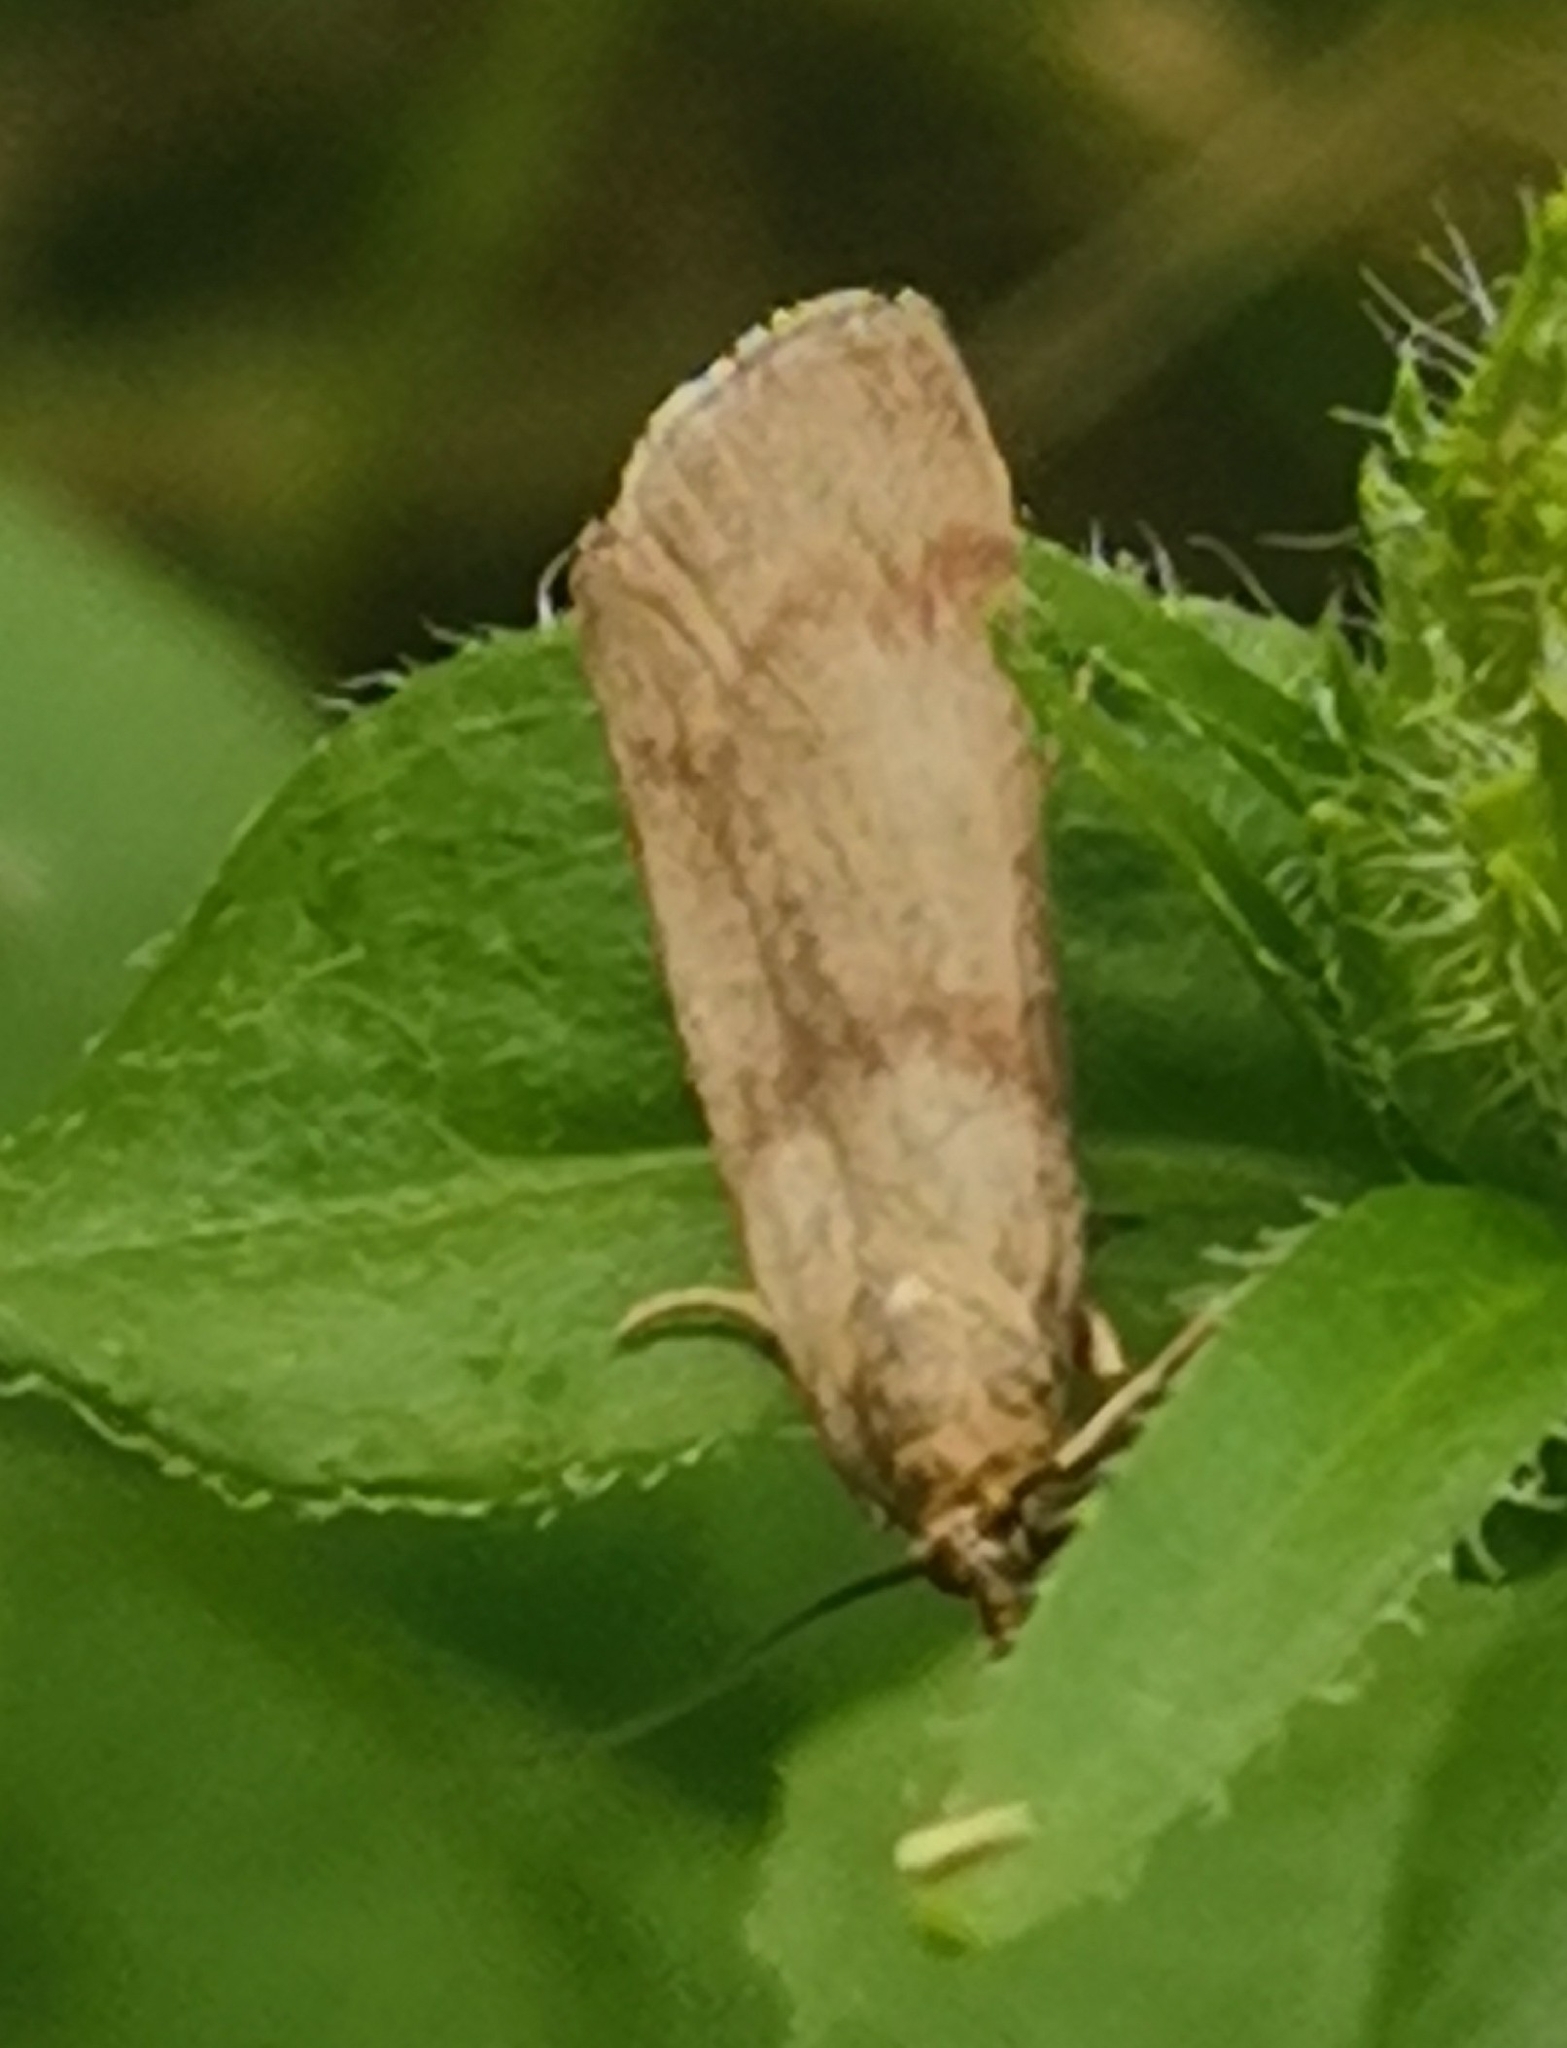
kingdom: Animalia
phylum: Arthropoda
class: Insecta
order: Lepidoptera
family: Pyralidae
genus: Hypochalcia
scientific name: Hypochalcia ahenella
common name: Dingy knot-horn
